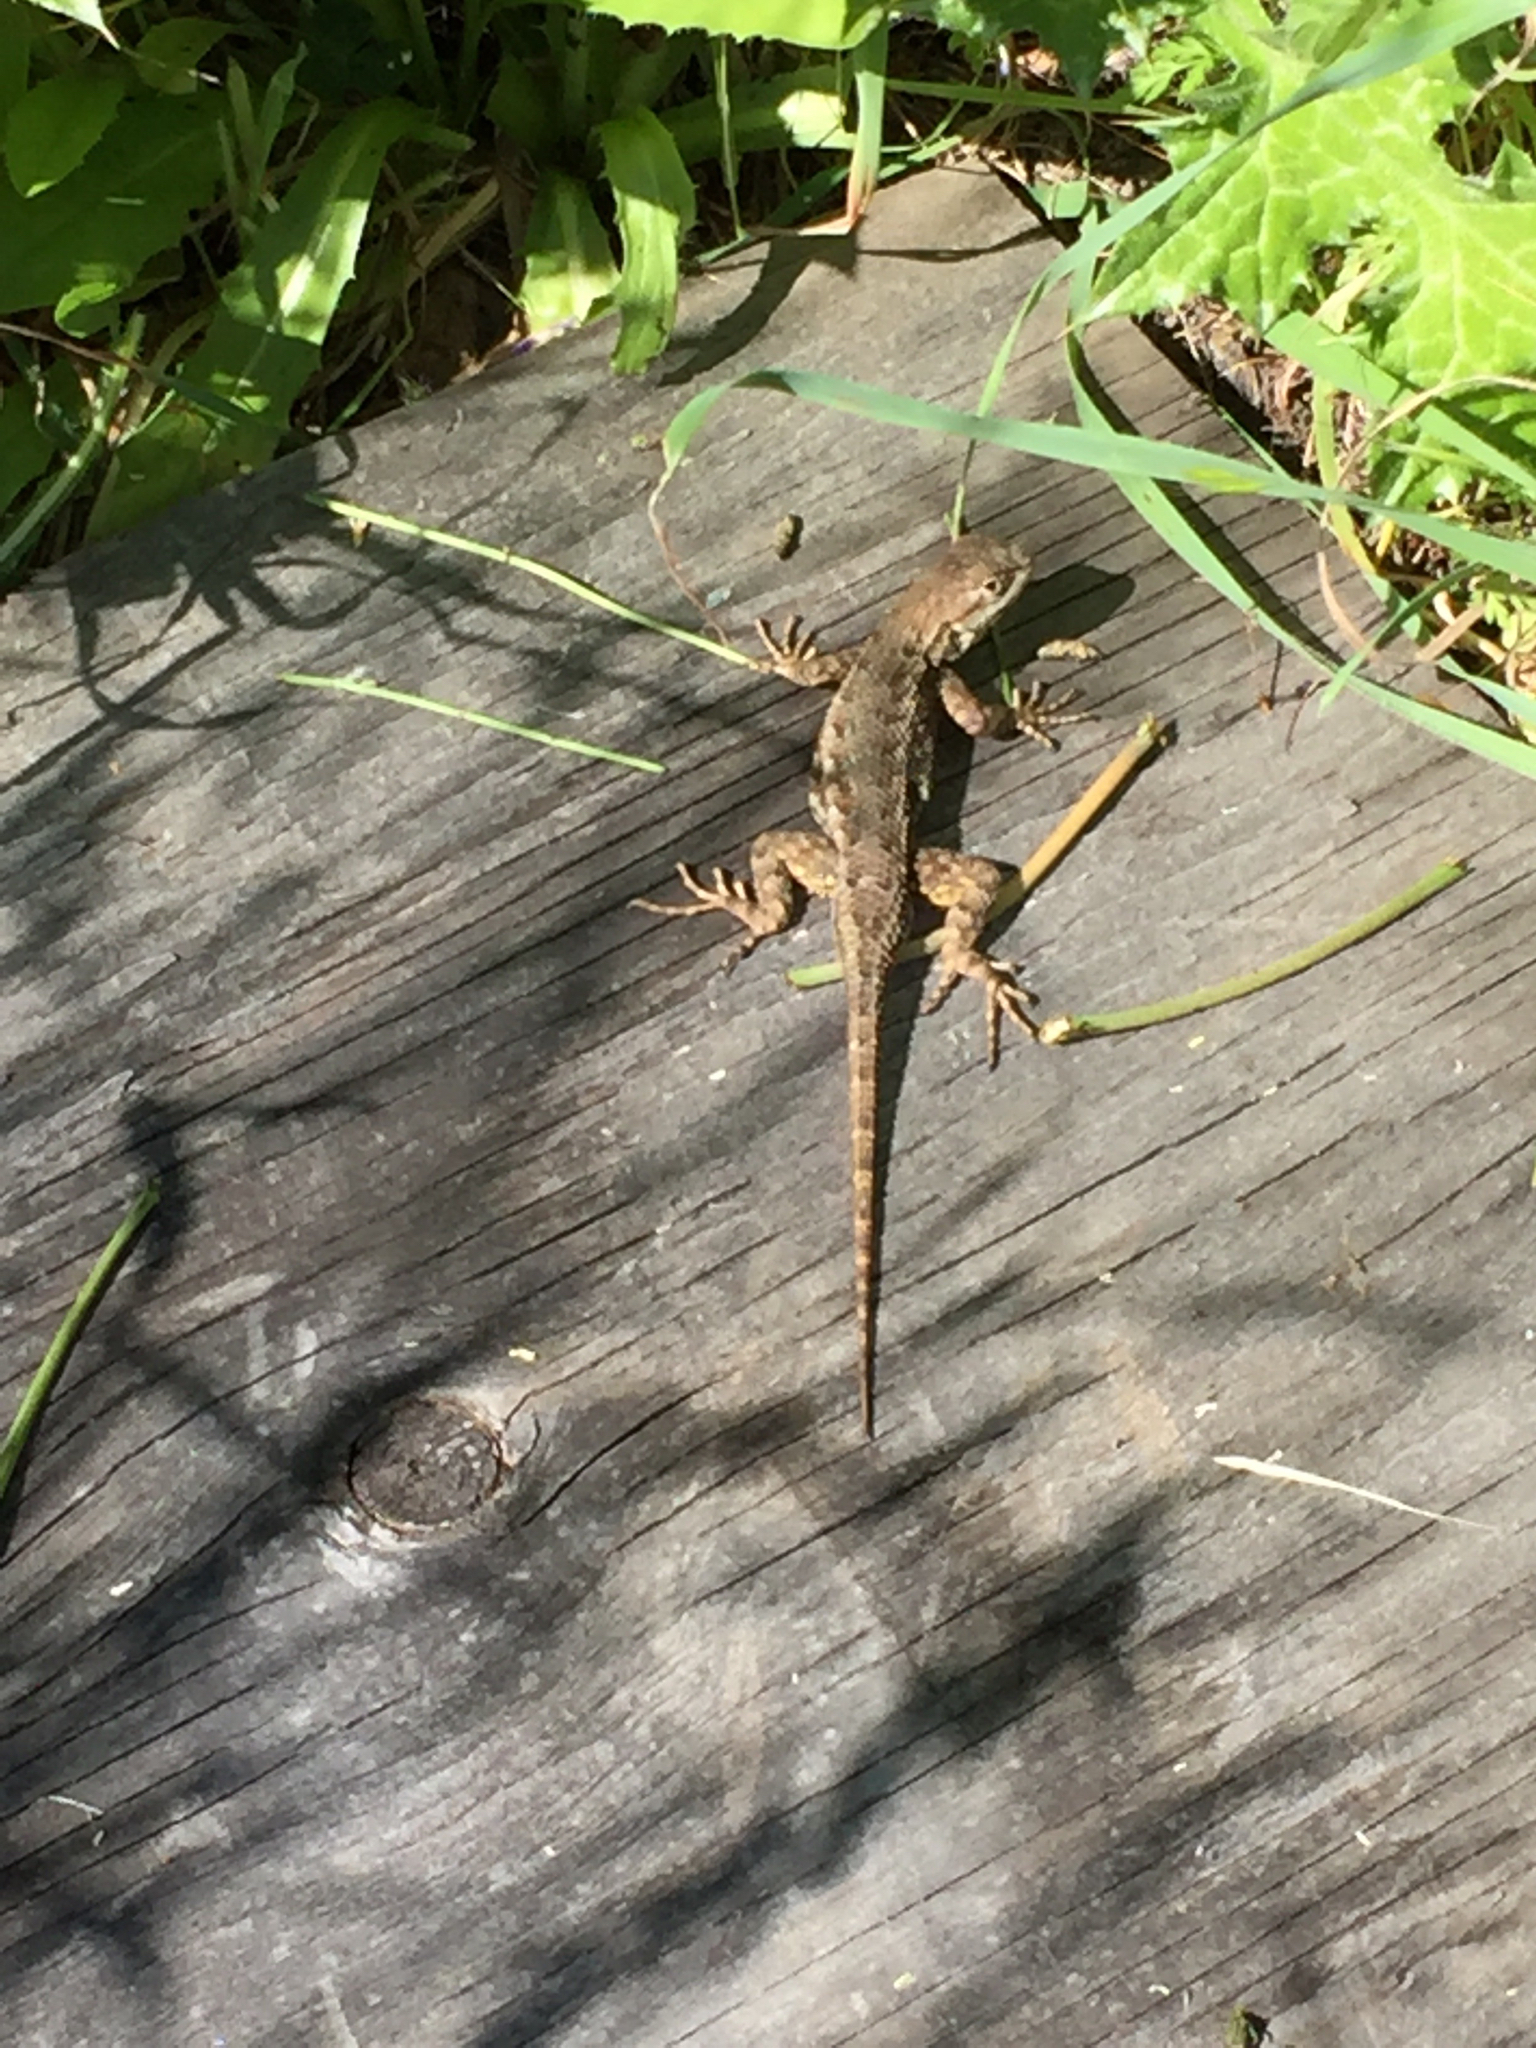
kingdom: Animalia
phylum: Chordata
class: Squamata
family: Phrynosomatidae
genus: Sceloporus
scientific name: Sceloporus occidentalis
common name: Western fence lizard
